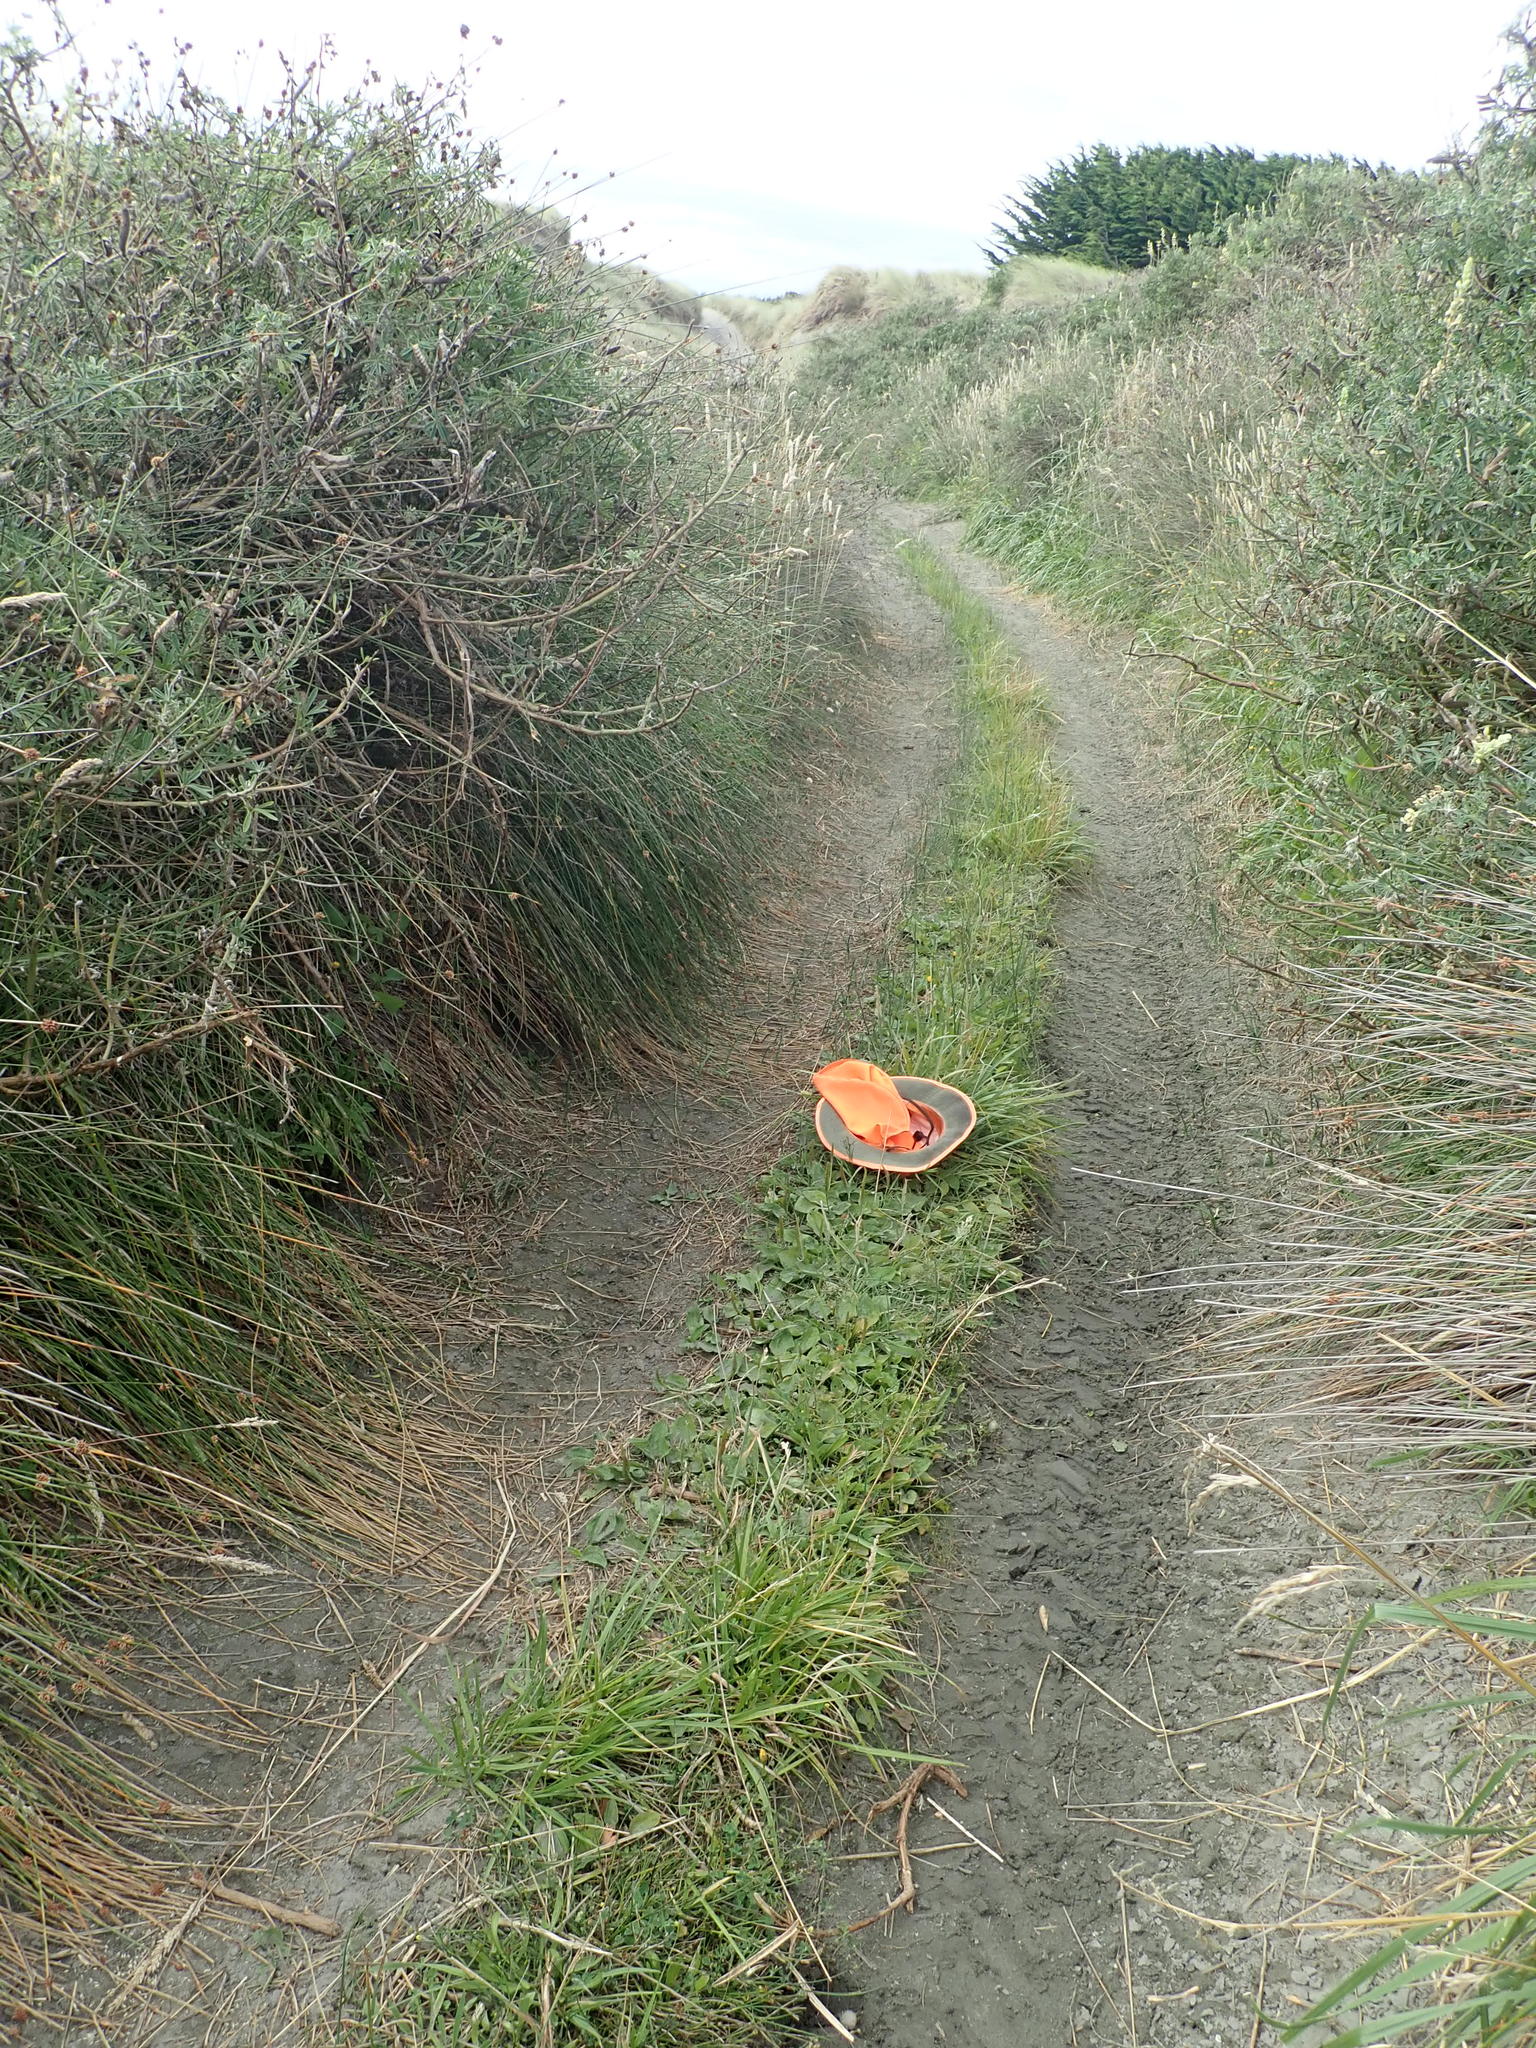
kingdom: Plantae
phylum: Tracheophyta
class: Magnoliopsida
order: Lamiales
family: Plantaginaceae
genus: Plantago
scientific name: Plantago major
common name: Common plantain
